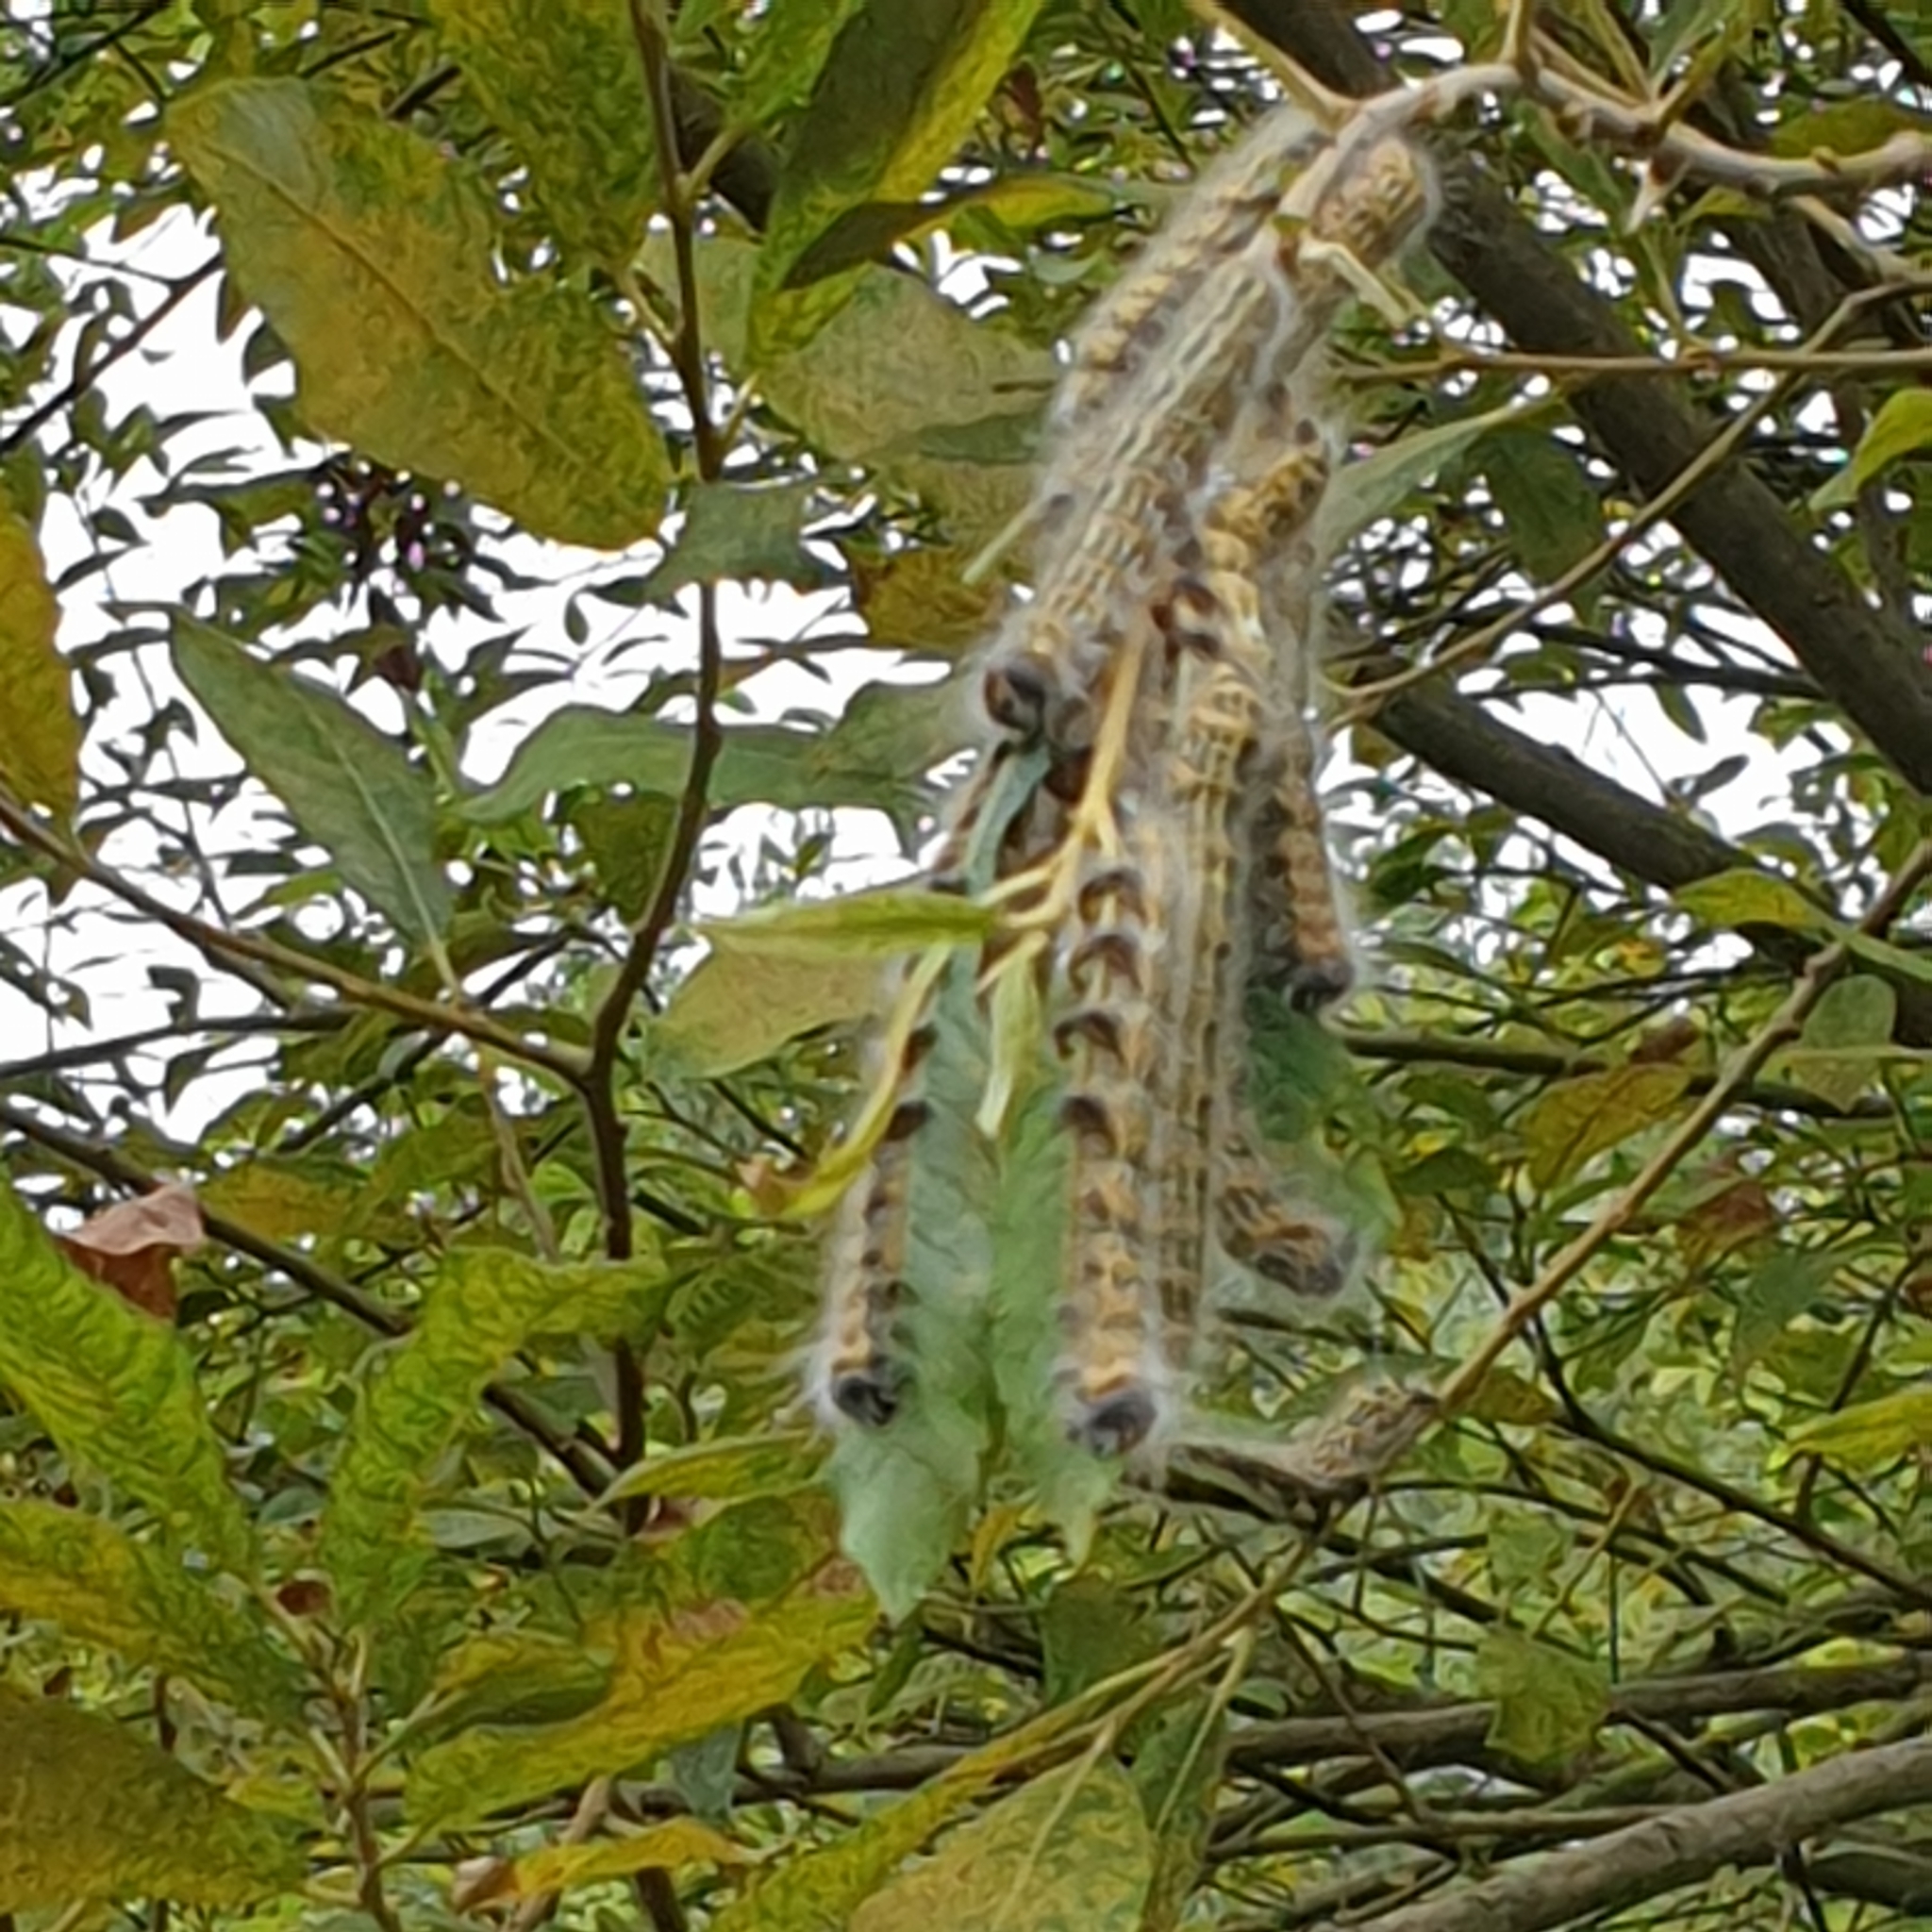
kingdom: Animalia
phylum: Arthropoda
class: Insecta
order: Lepidoptera
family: Notodontidae
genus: Phalera
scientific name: Phalera bucephala
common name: Buff-tip
